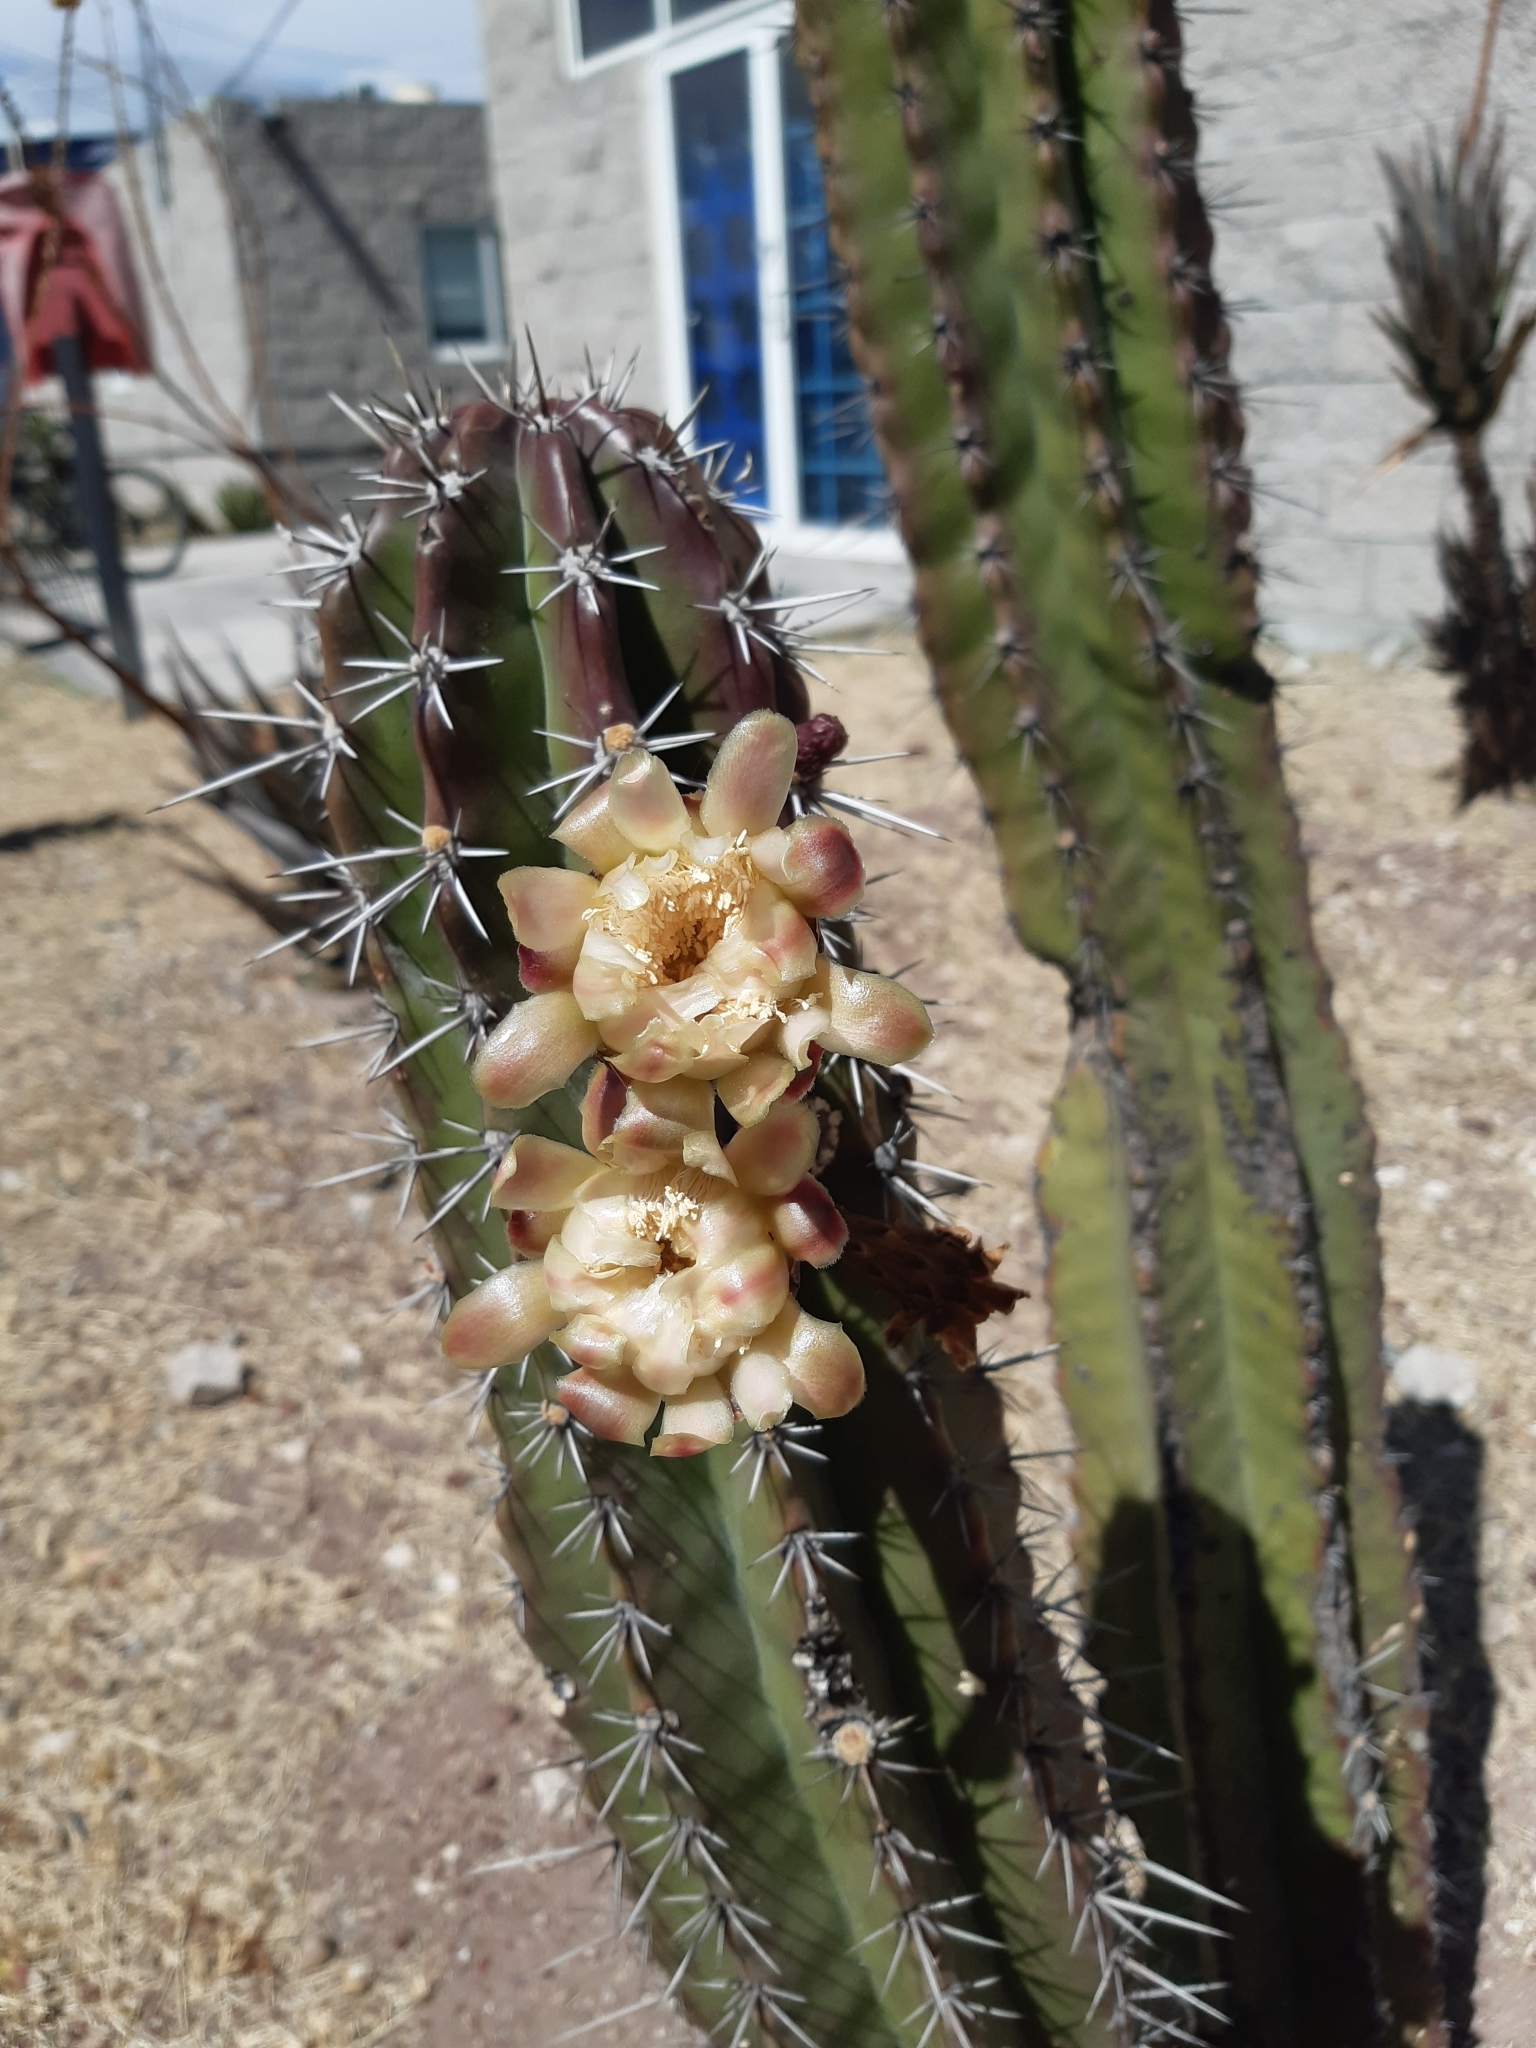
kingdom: Plantae
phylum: Tracheophyta
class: Magnoliopsida
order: Caryophyllales
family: Cactaceae
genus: Stenocereus
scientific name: Stenocereus queretaroensis
